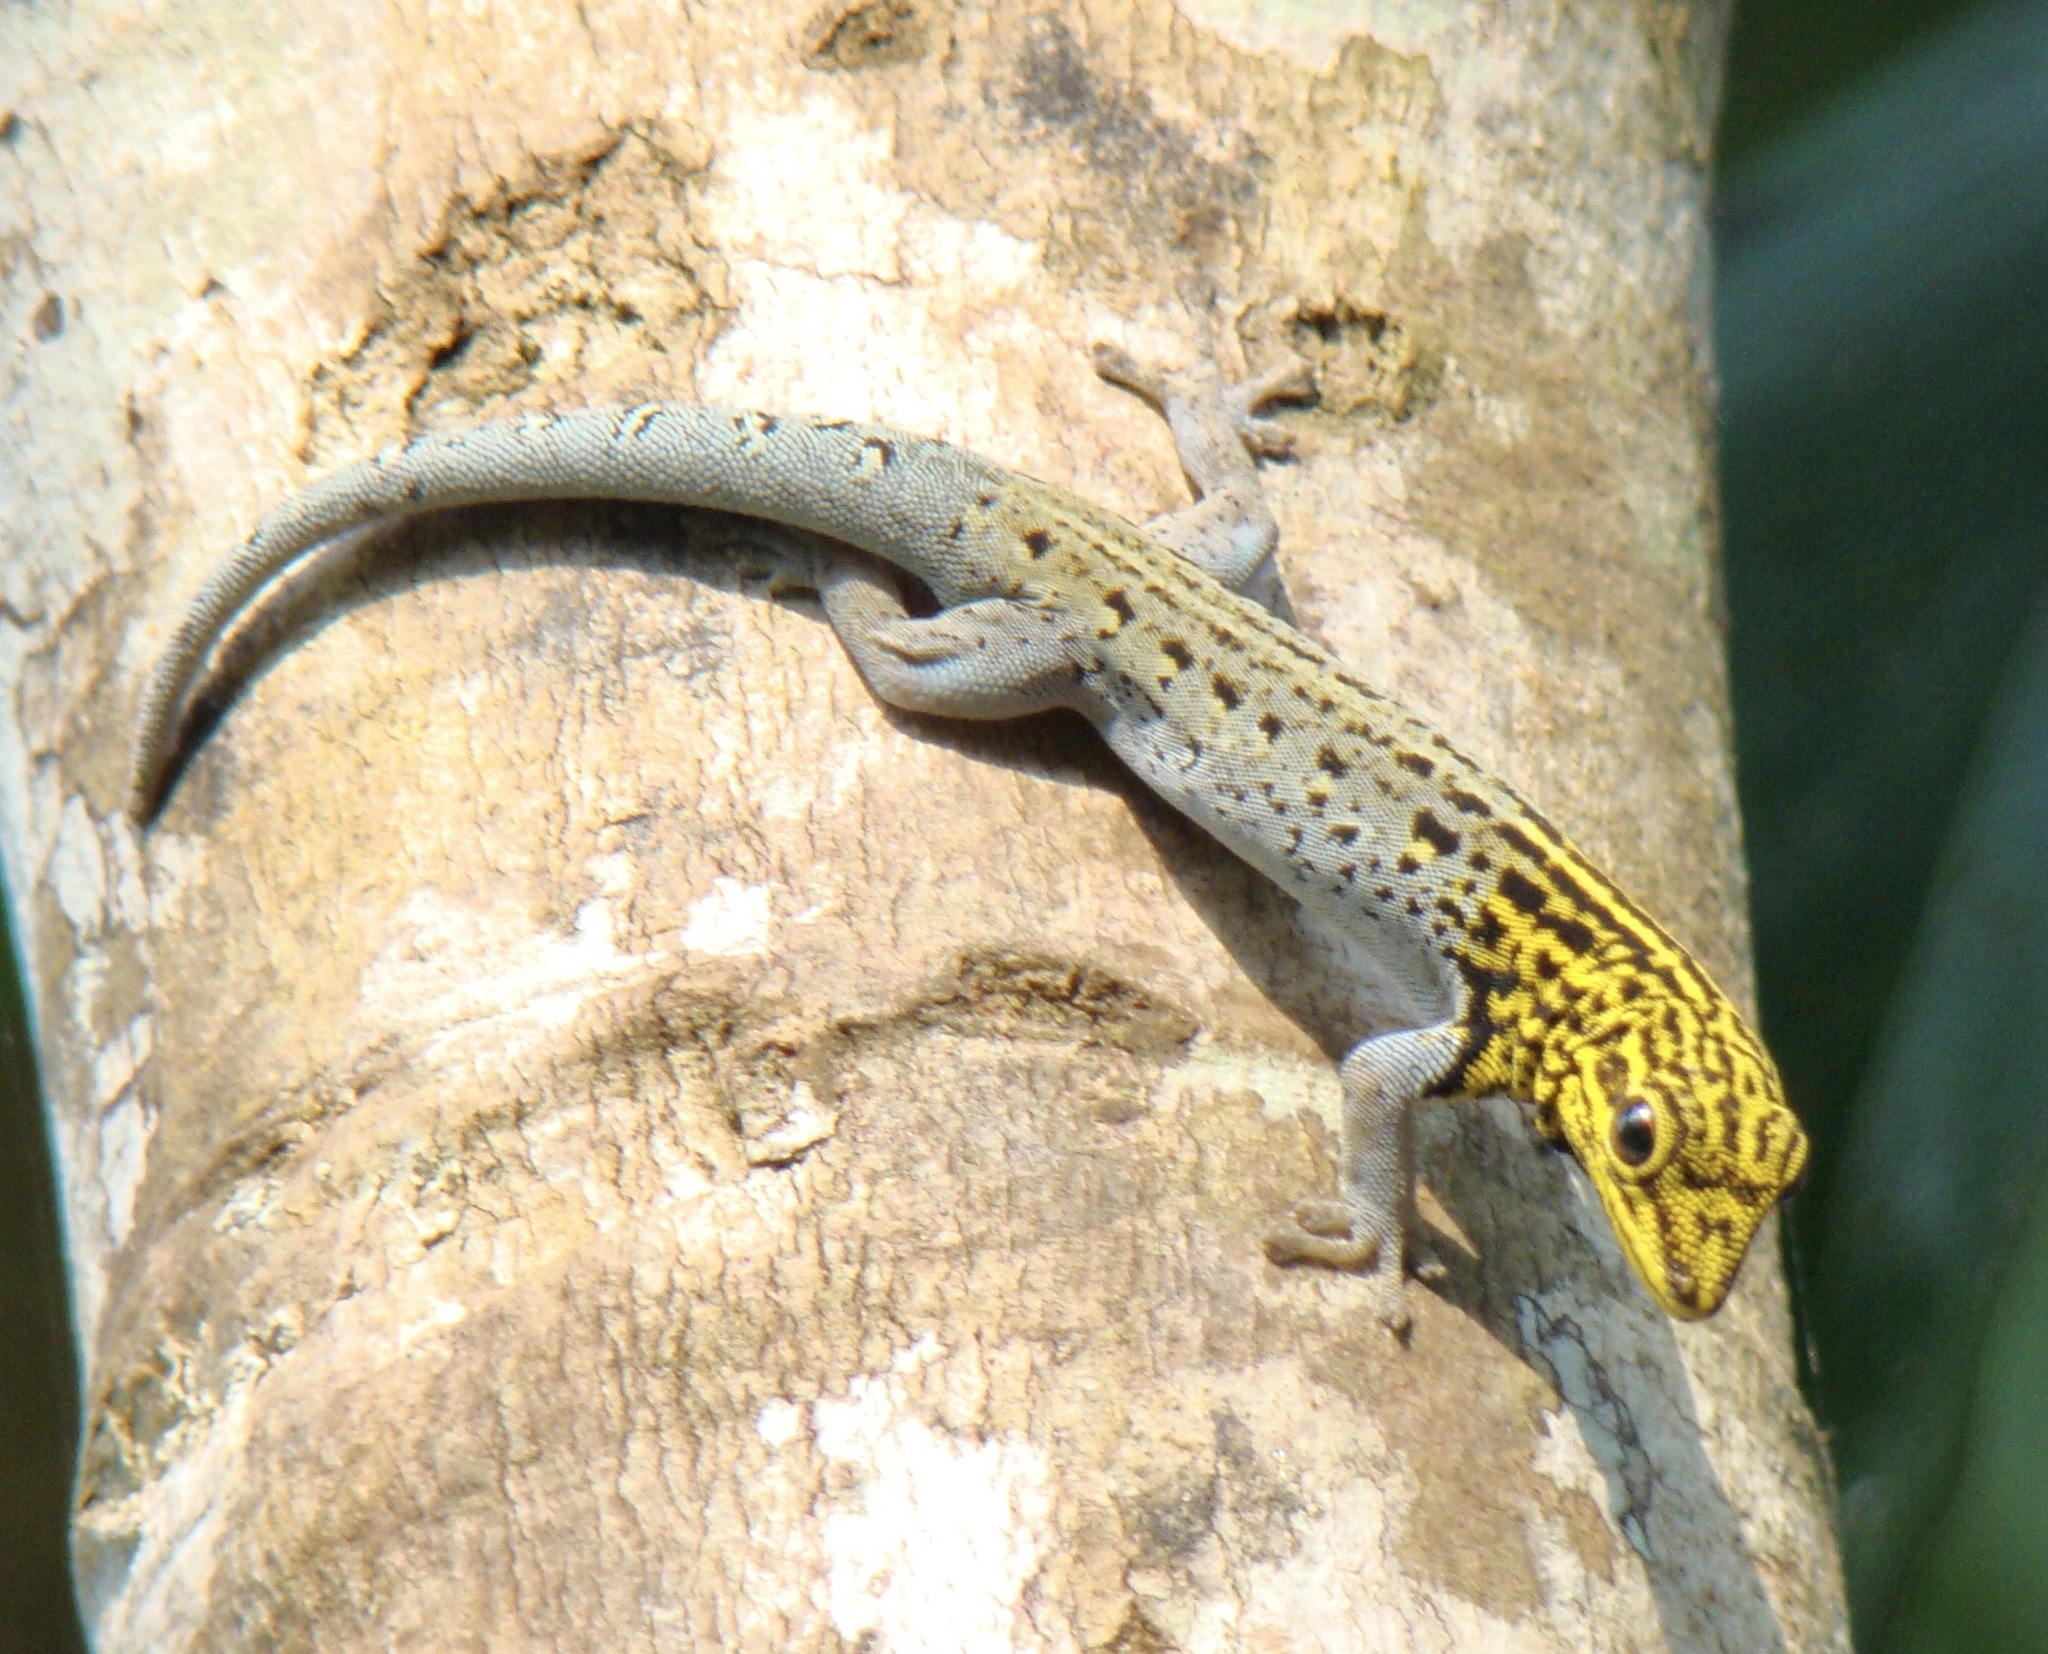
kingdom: Animalia
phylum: Chordata
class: Squamata
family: Gekkonidae
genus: Lygodactylus
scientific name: Lygodactylus picturatus
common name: Painted dwarf gecko
